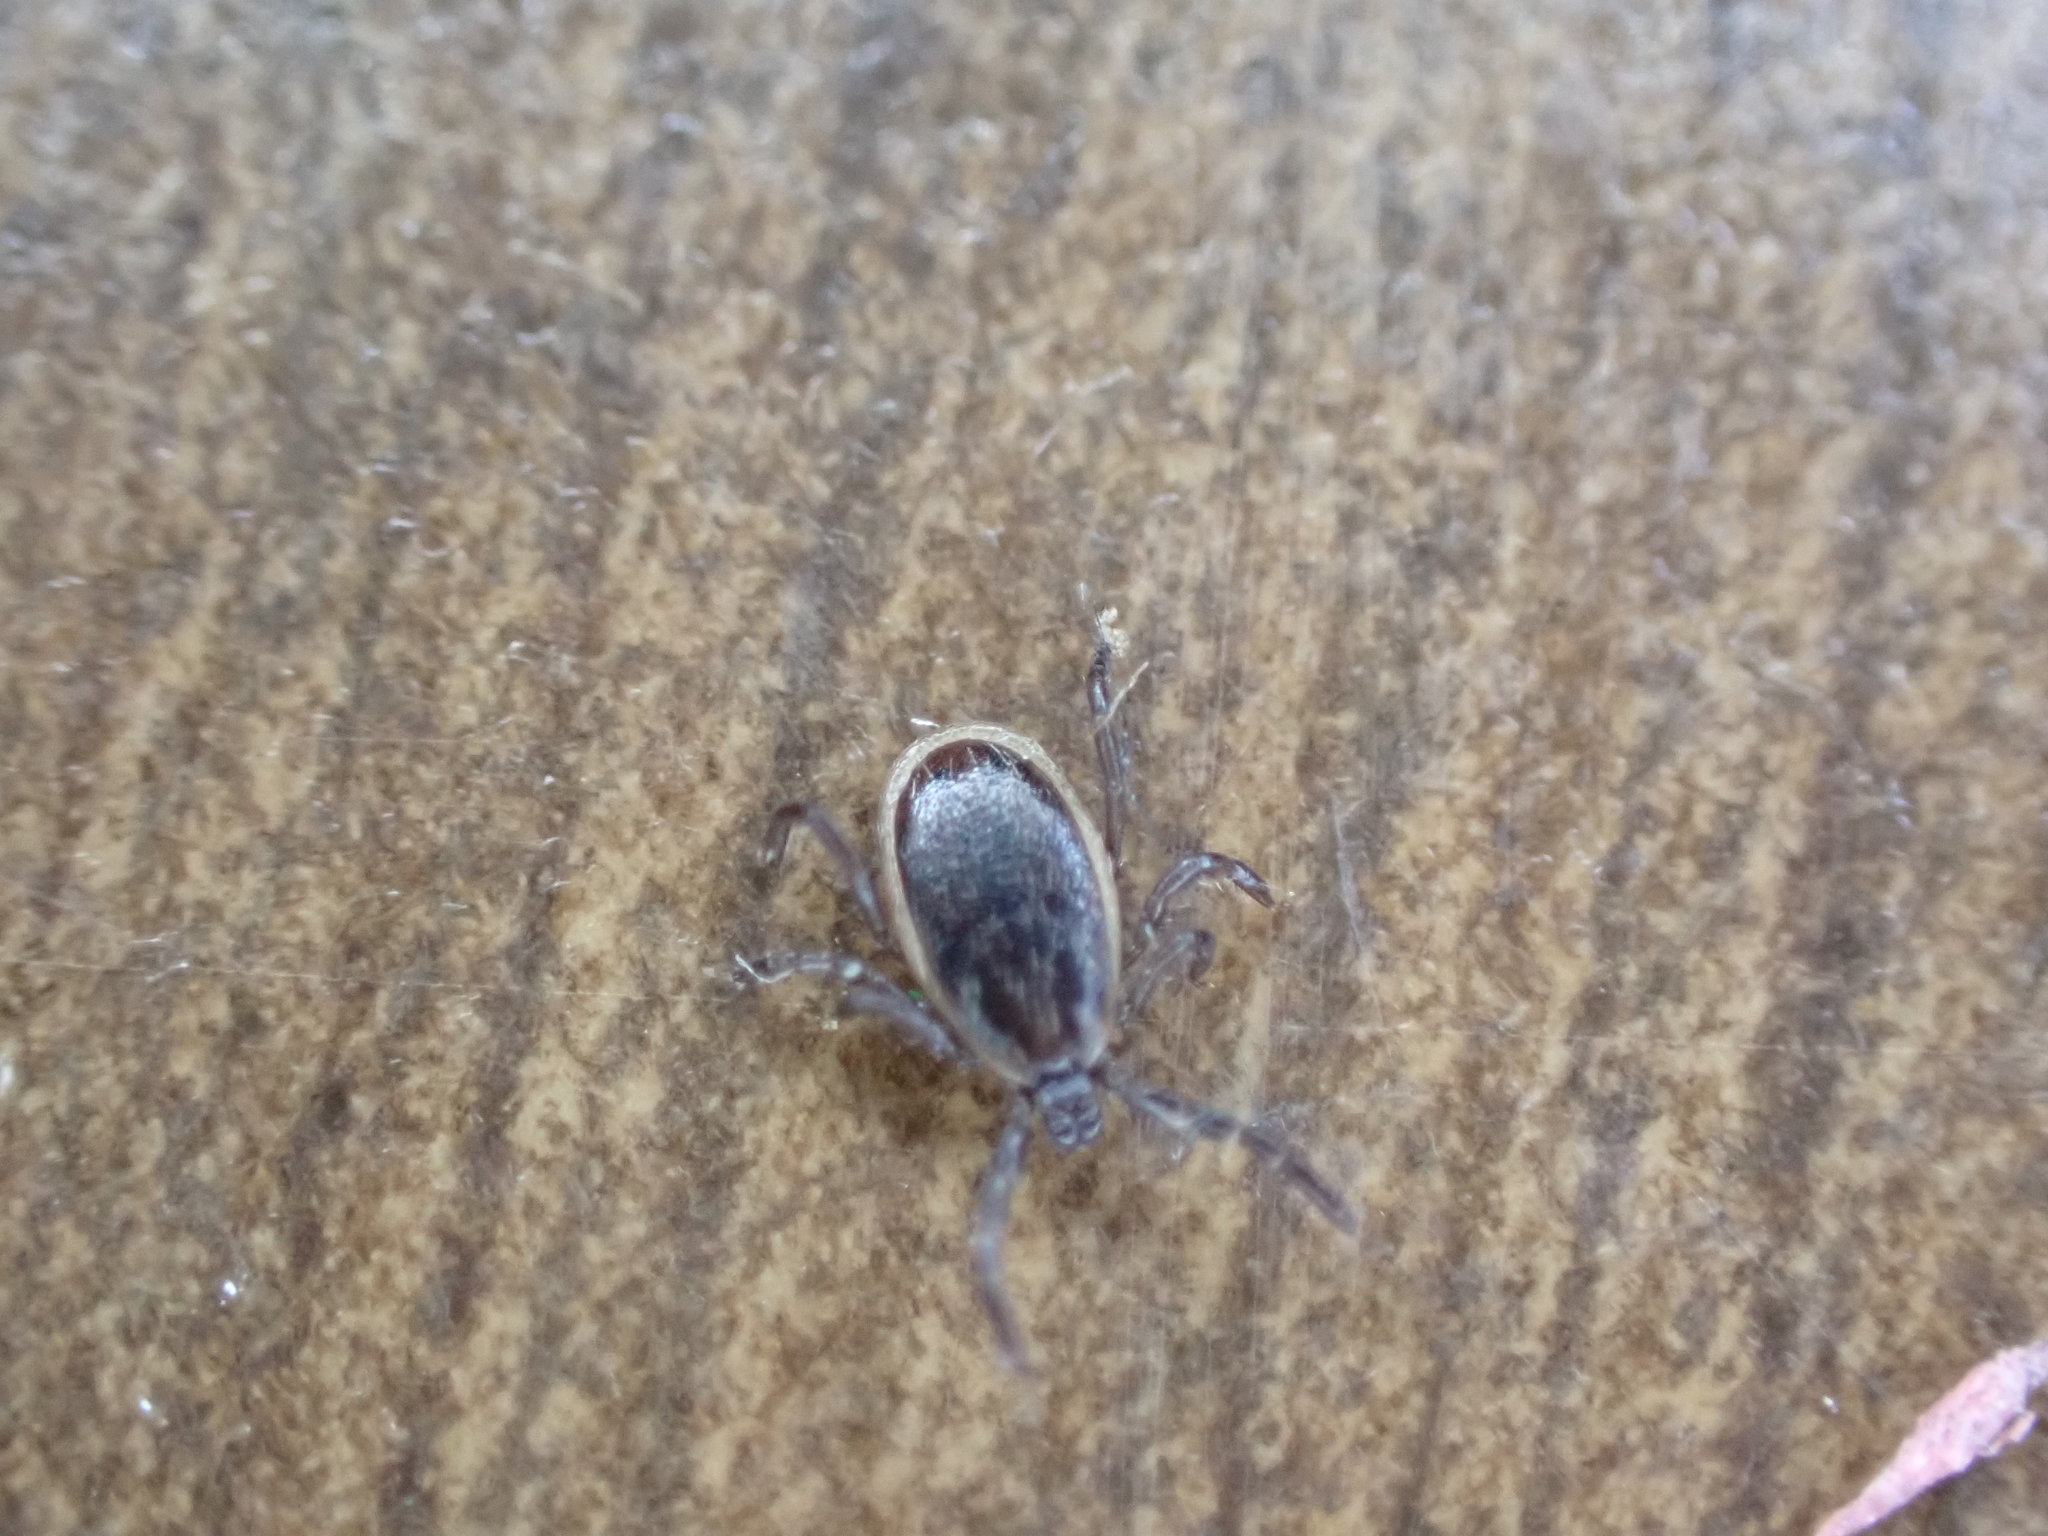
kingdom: Animalia
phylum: Arthropoda
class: Arachnida
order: Ixodida
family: Ixodidae
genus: Ixodes
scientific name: Ixodes scapularis
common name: Black legged tick
